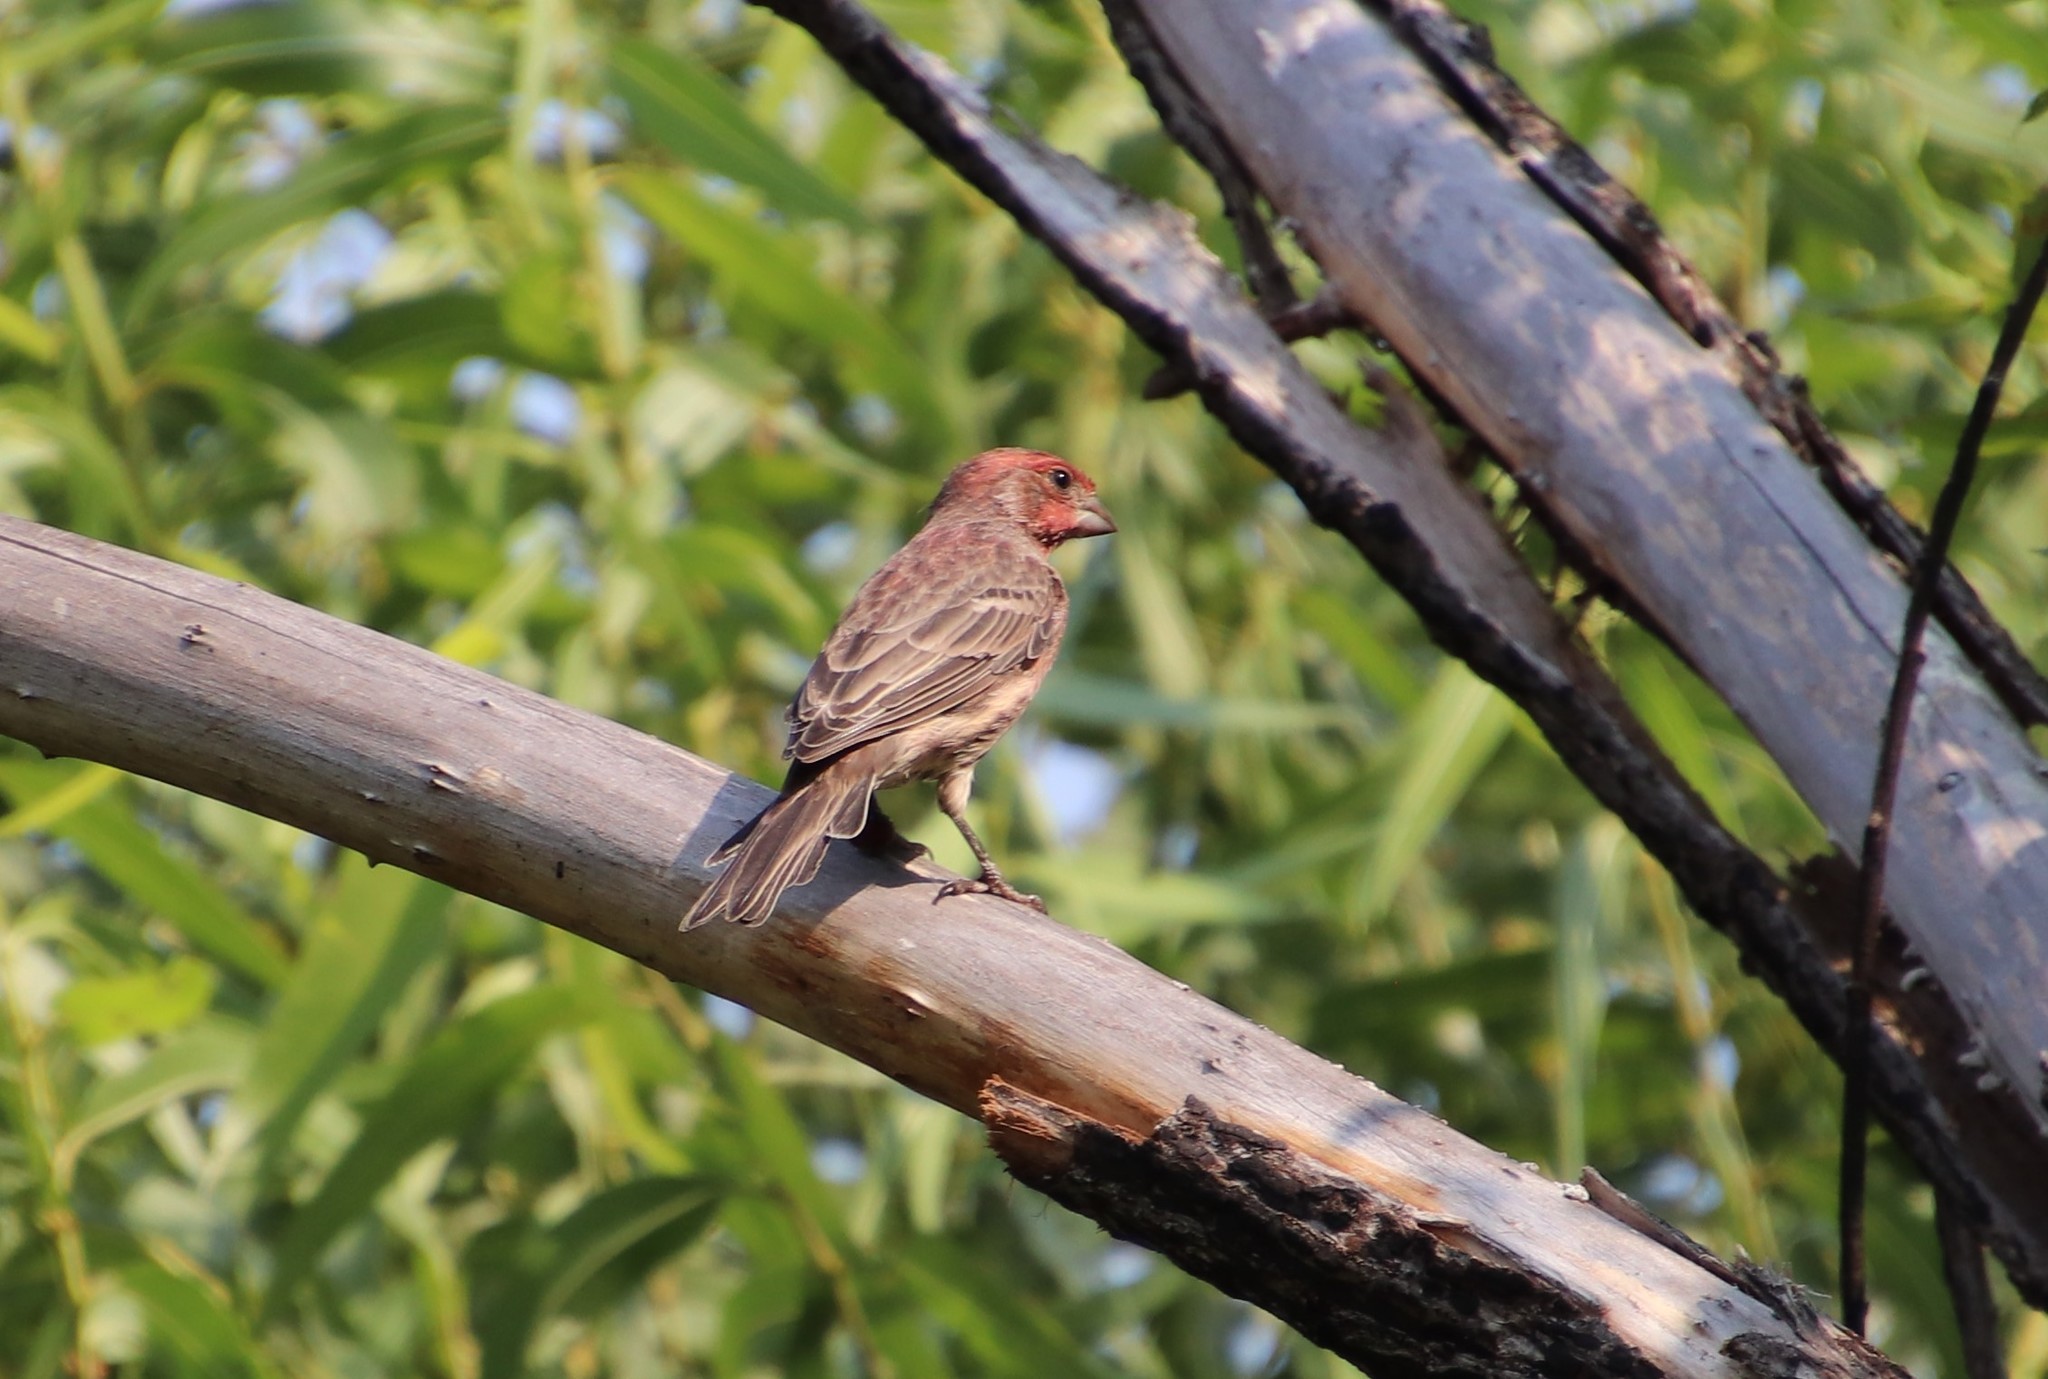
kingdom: Animalia
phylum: Chordata
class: Aves
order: Passeriformes
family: Fringillidae
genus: Haemorhous
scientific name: Haemorhous mexicanus
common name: House finch
